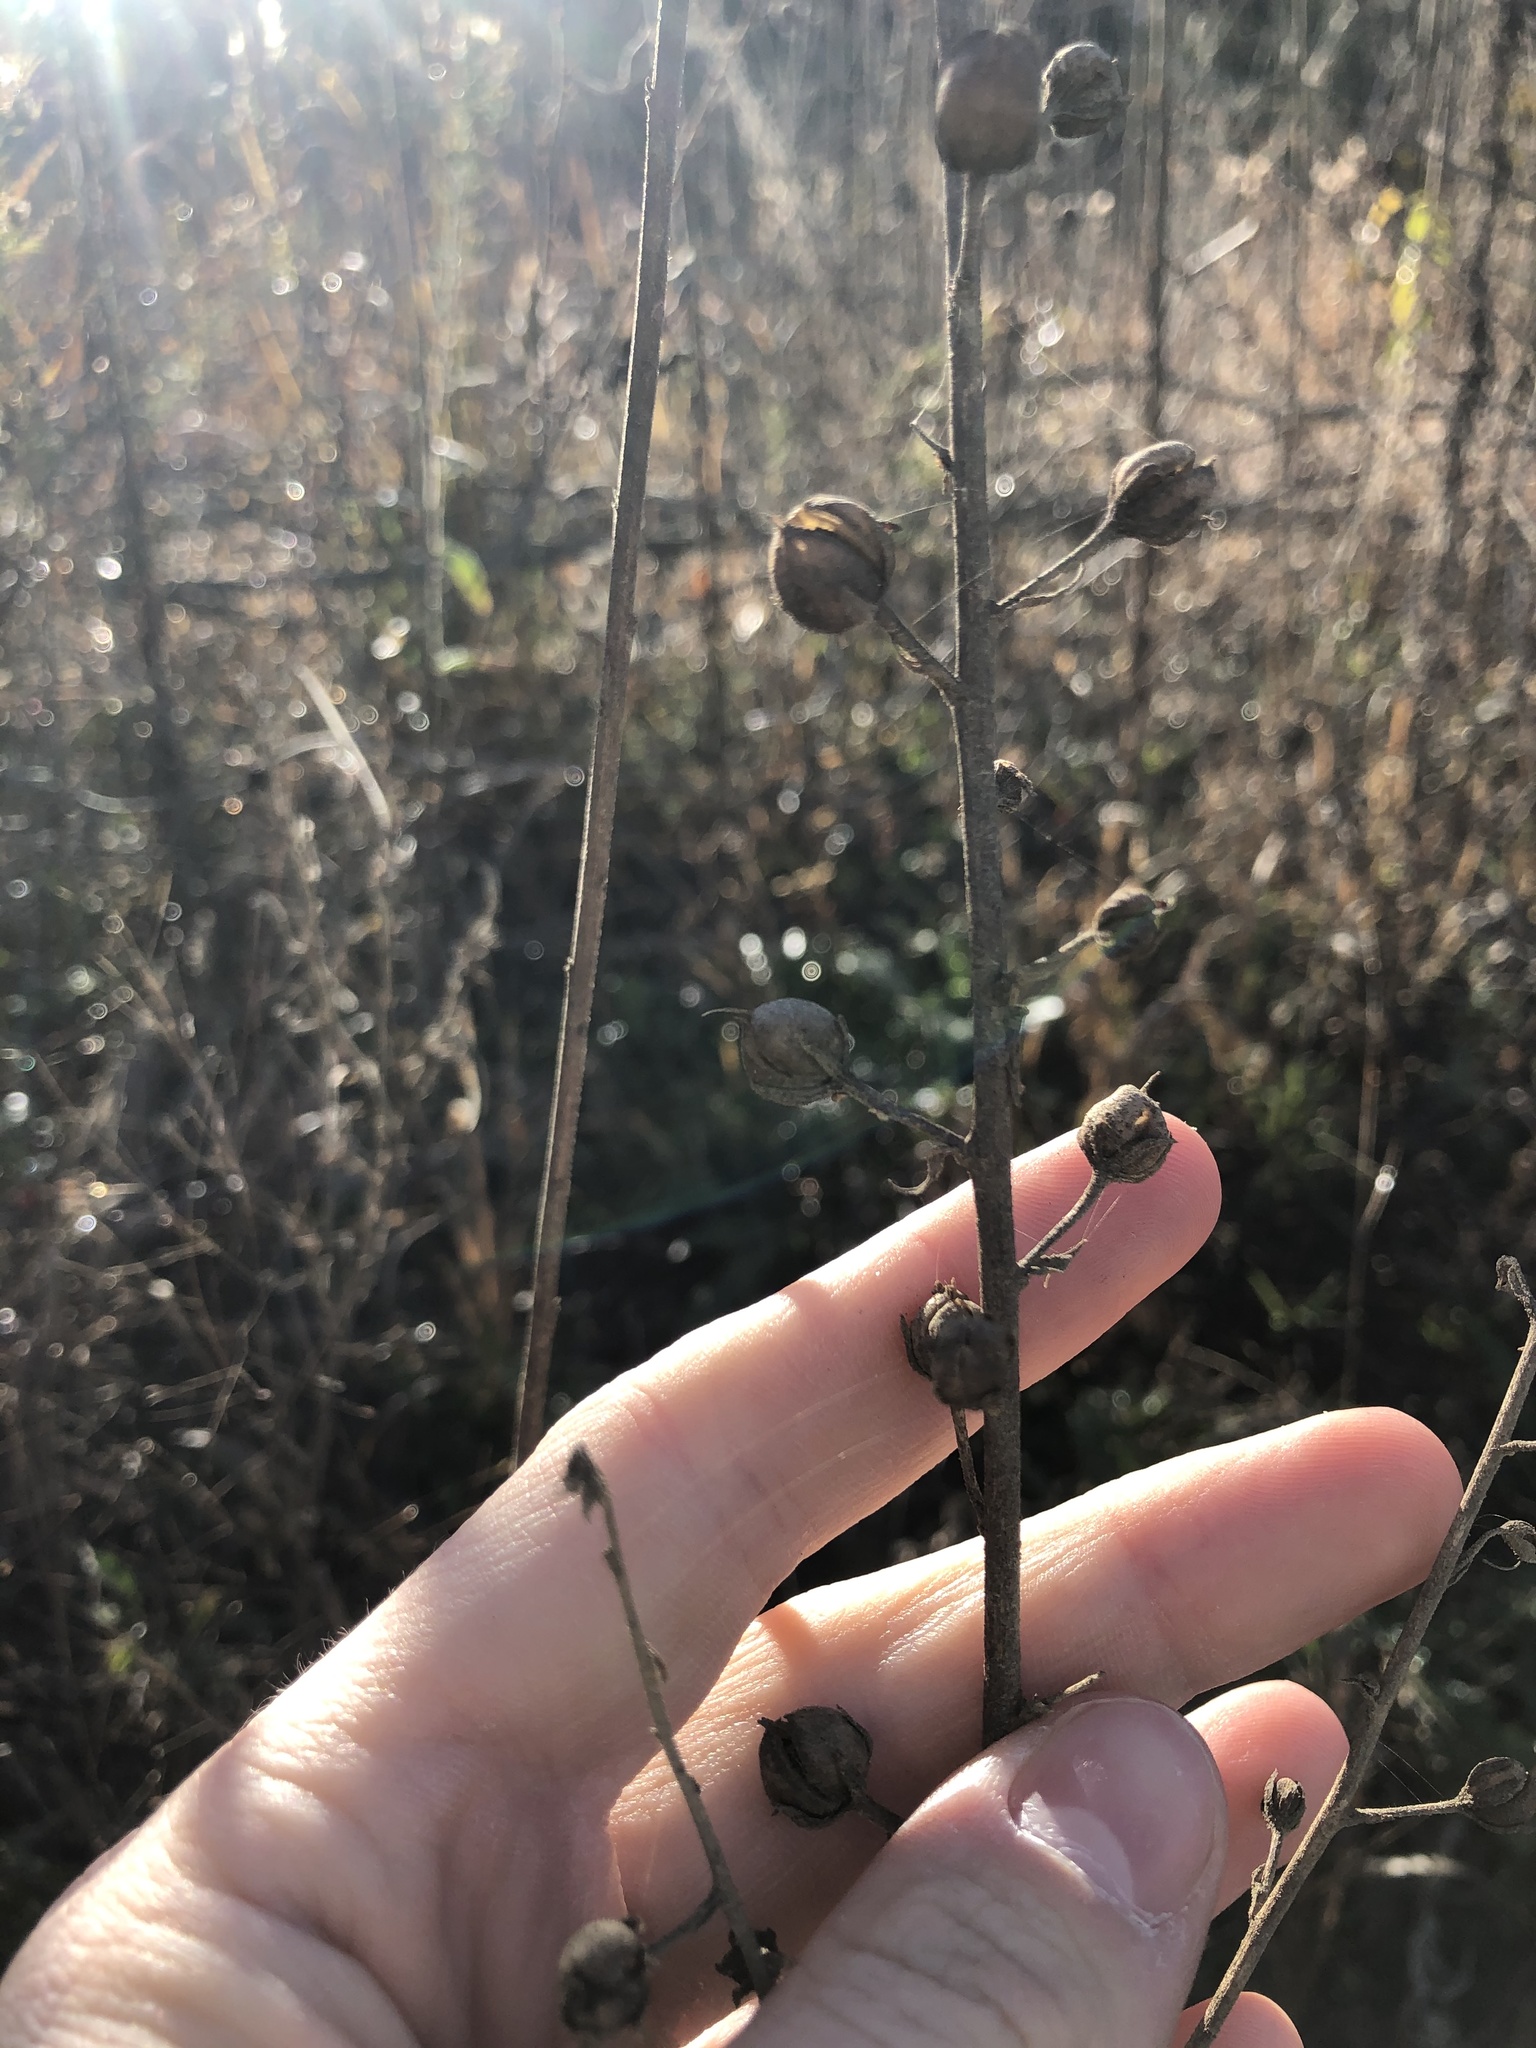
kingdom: Plantae
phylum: Tracheophyta
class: Magnoliopsida
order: Lamiales
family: Scrophulariaceae
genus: Verbascum
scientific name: Verbascum blattaria
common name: Moth mullein
